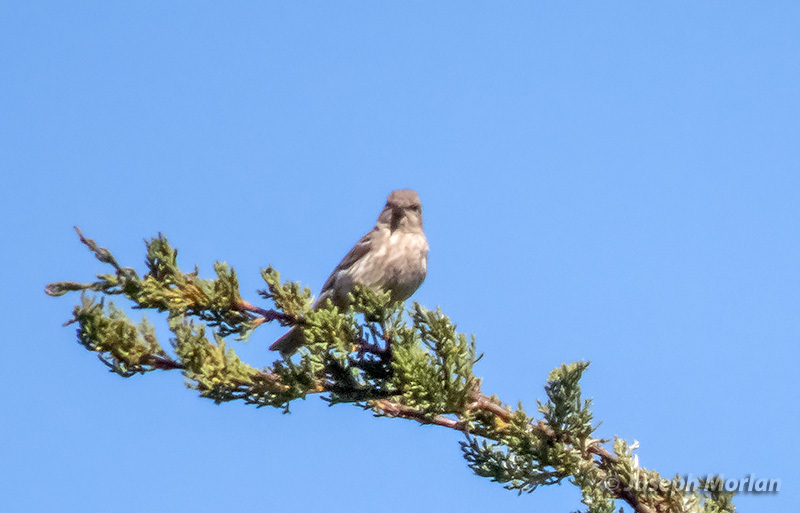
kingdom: Animalia
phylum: Chordata
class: Aves
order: Passeriformes
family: Fringillidae
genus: Haemorhous
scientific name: Haemorhous mexicanus
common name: House finch
